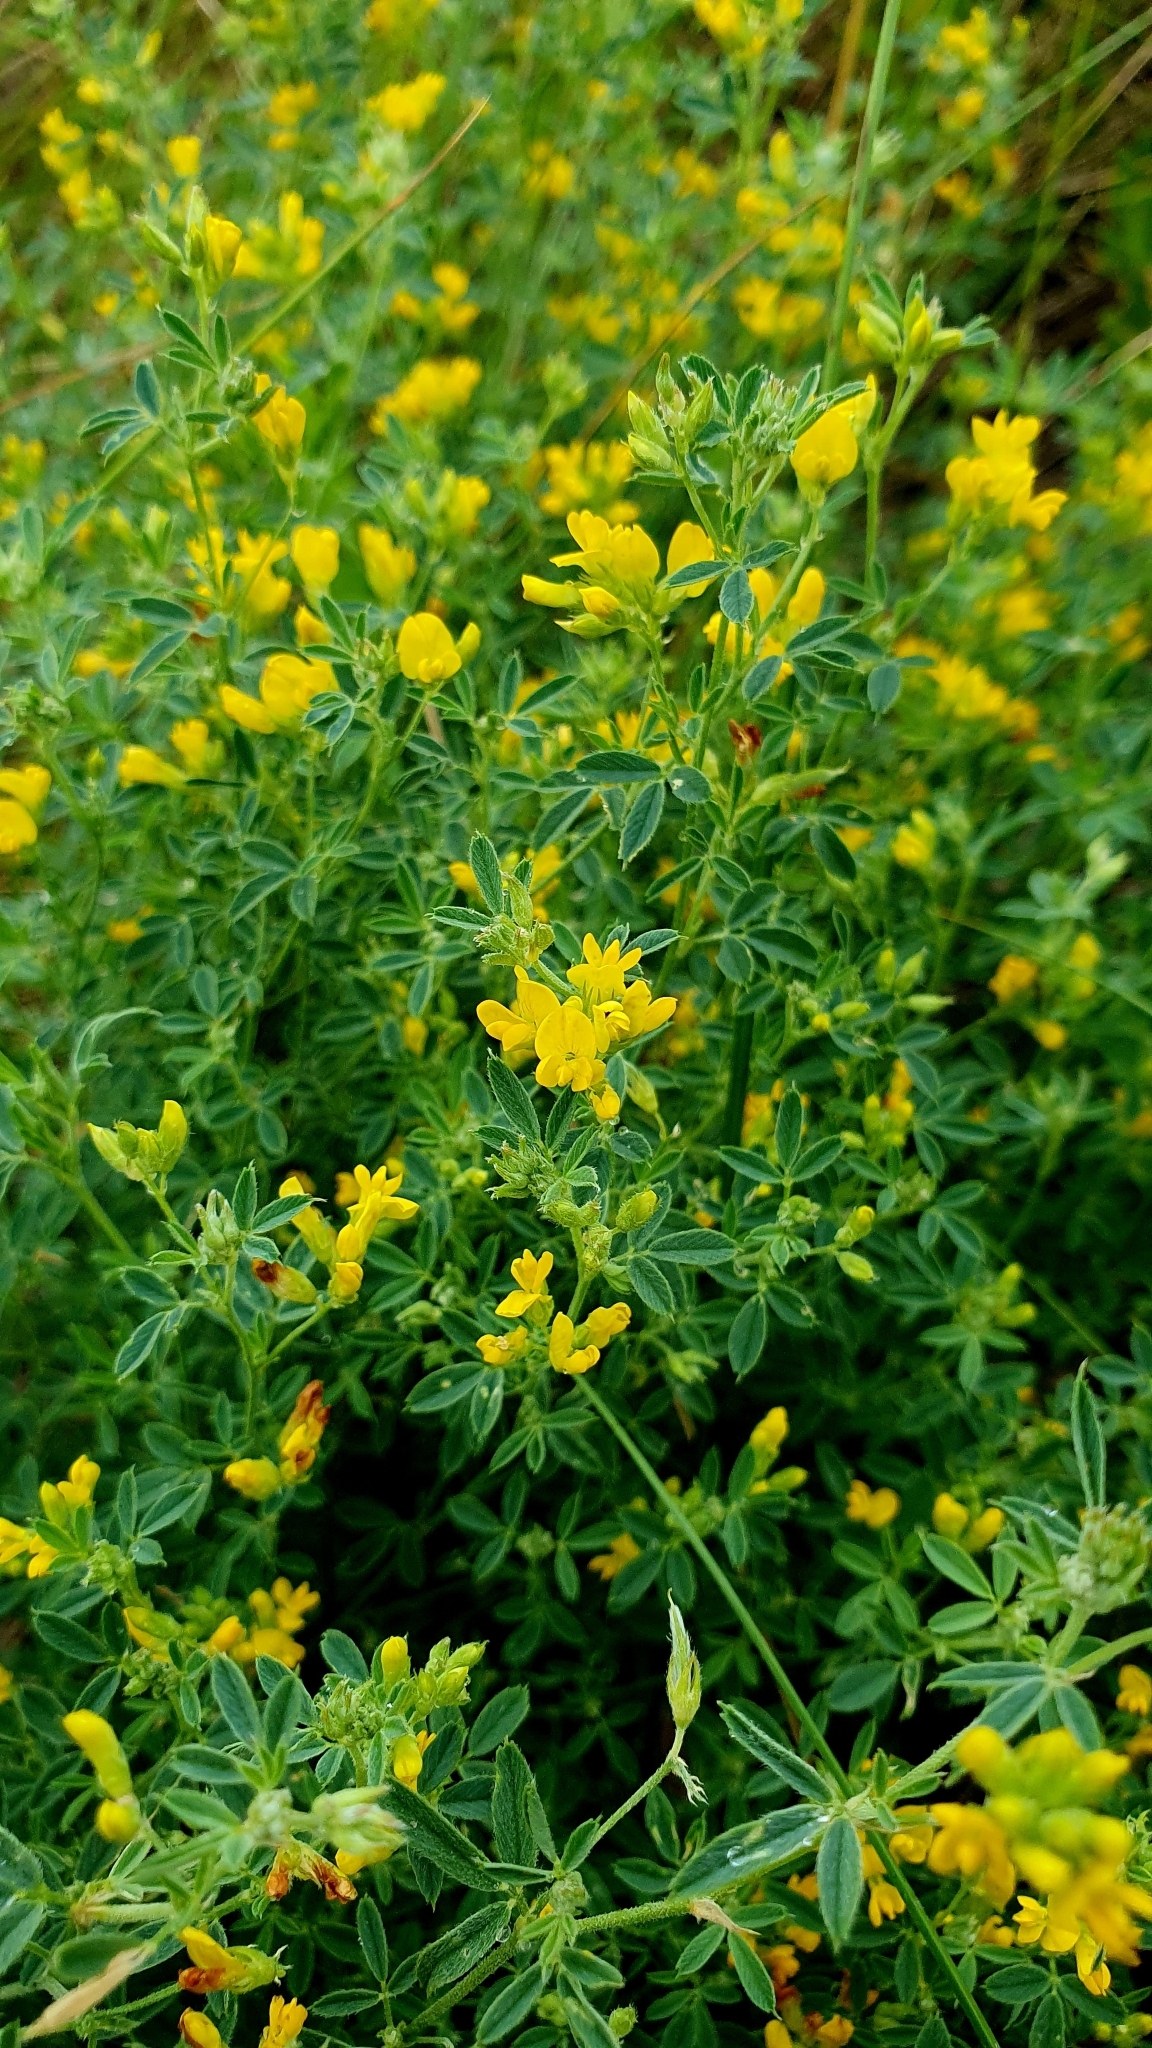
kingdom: Plantae
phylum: Tracheophyta
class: Magnoliopsida
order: Fabales
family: Fabaceae
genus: Medicago
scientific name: Medicago falcata
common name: Sickle medick
